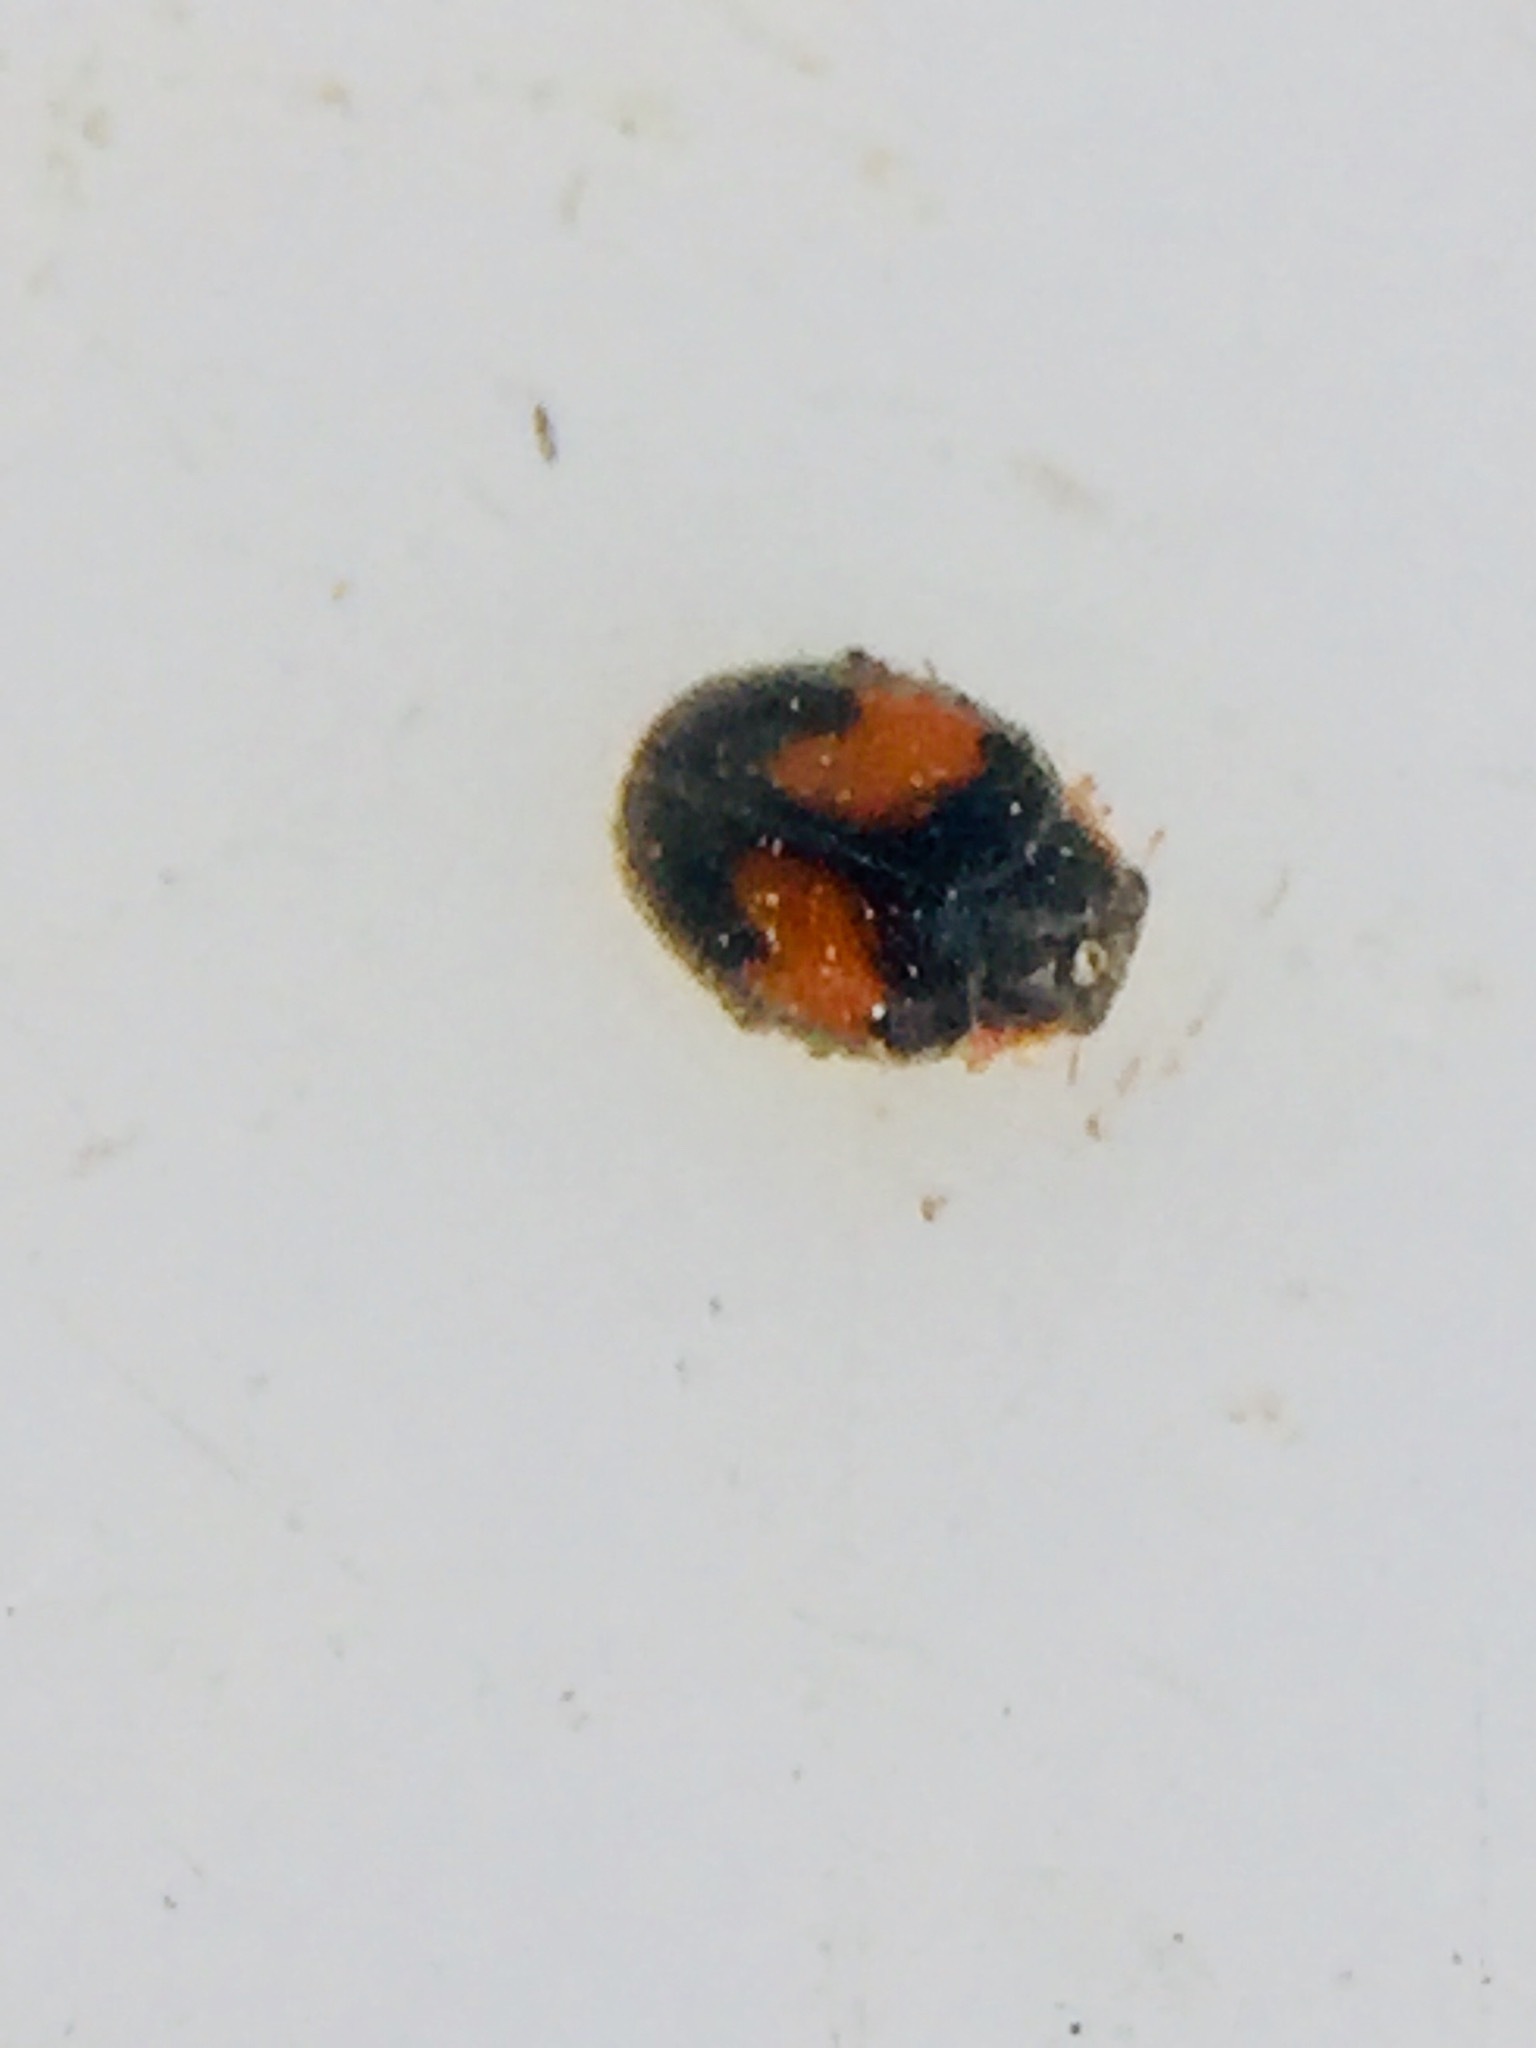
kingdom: Animalia
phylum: Arthropoda
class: Insecta
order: Coleoptera
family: Coccinellidae
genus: Scymnus
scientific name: Scymnus notescens
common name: Minute two-spotted ladybird beetle
